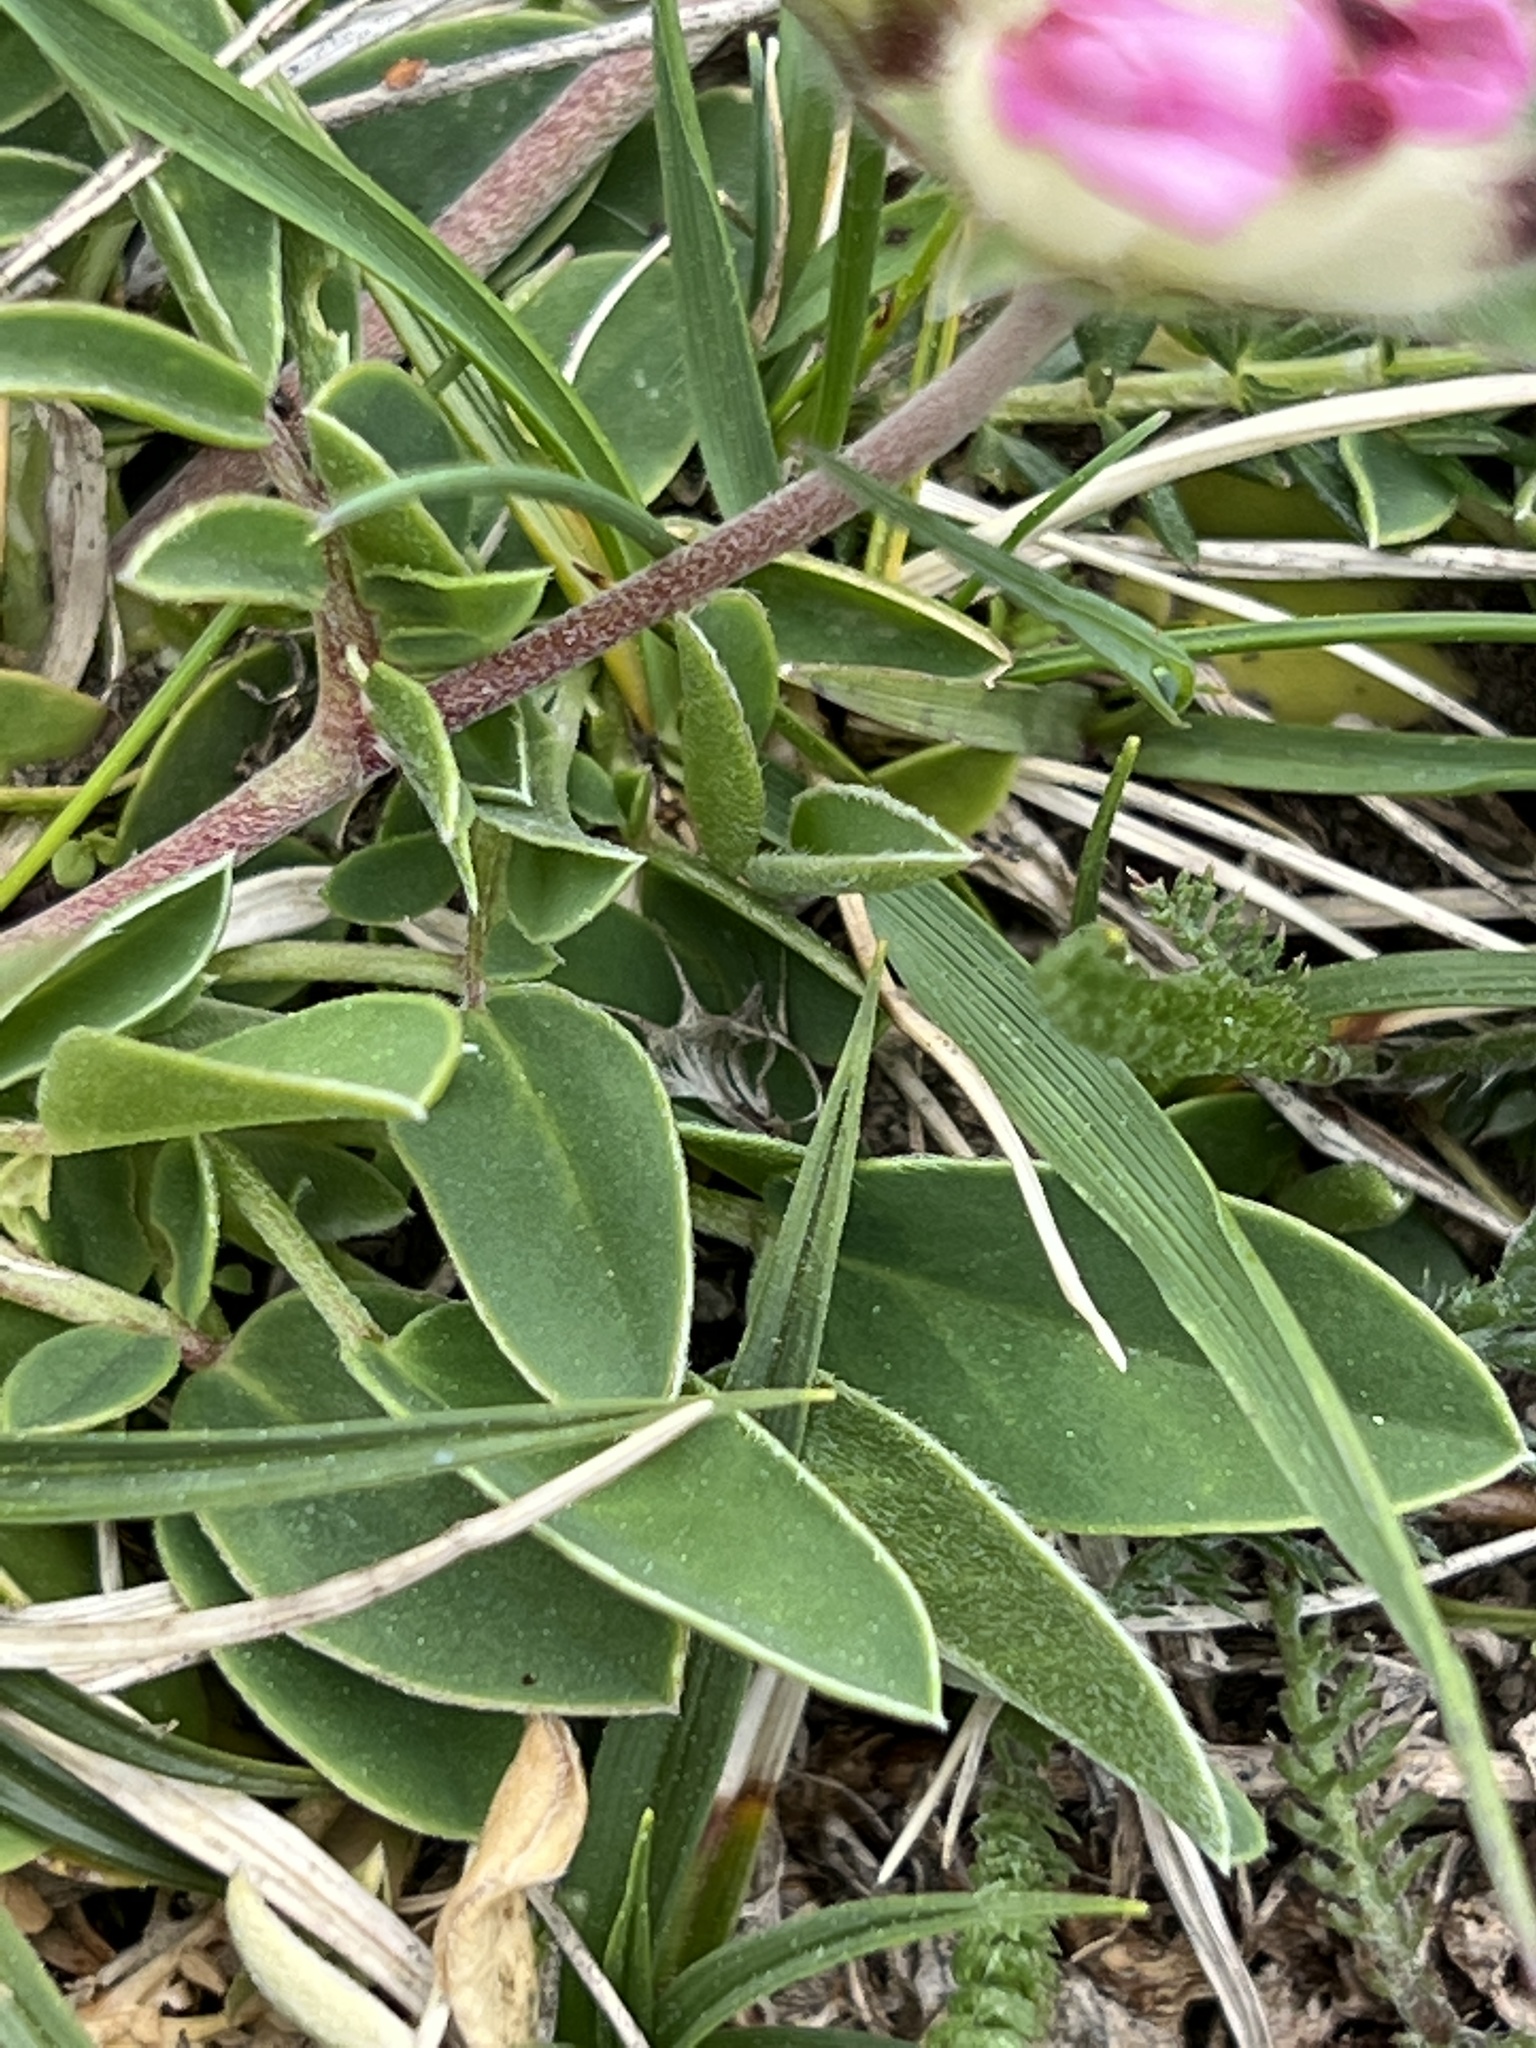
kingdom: Plantae
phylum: Tracheophyta
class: Magnoliopsida
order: Fabales
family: Fabaceae
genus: Anthyllis
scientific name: Anthyllis vulneraria
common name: Kidney vetch
